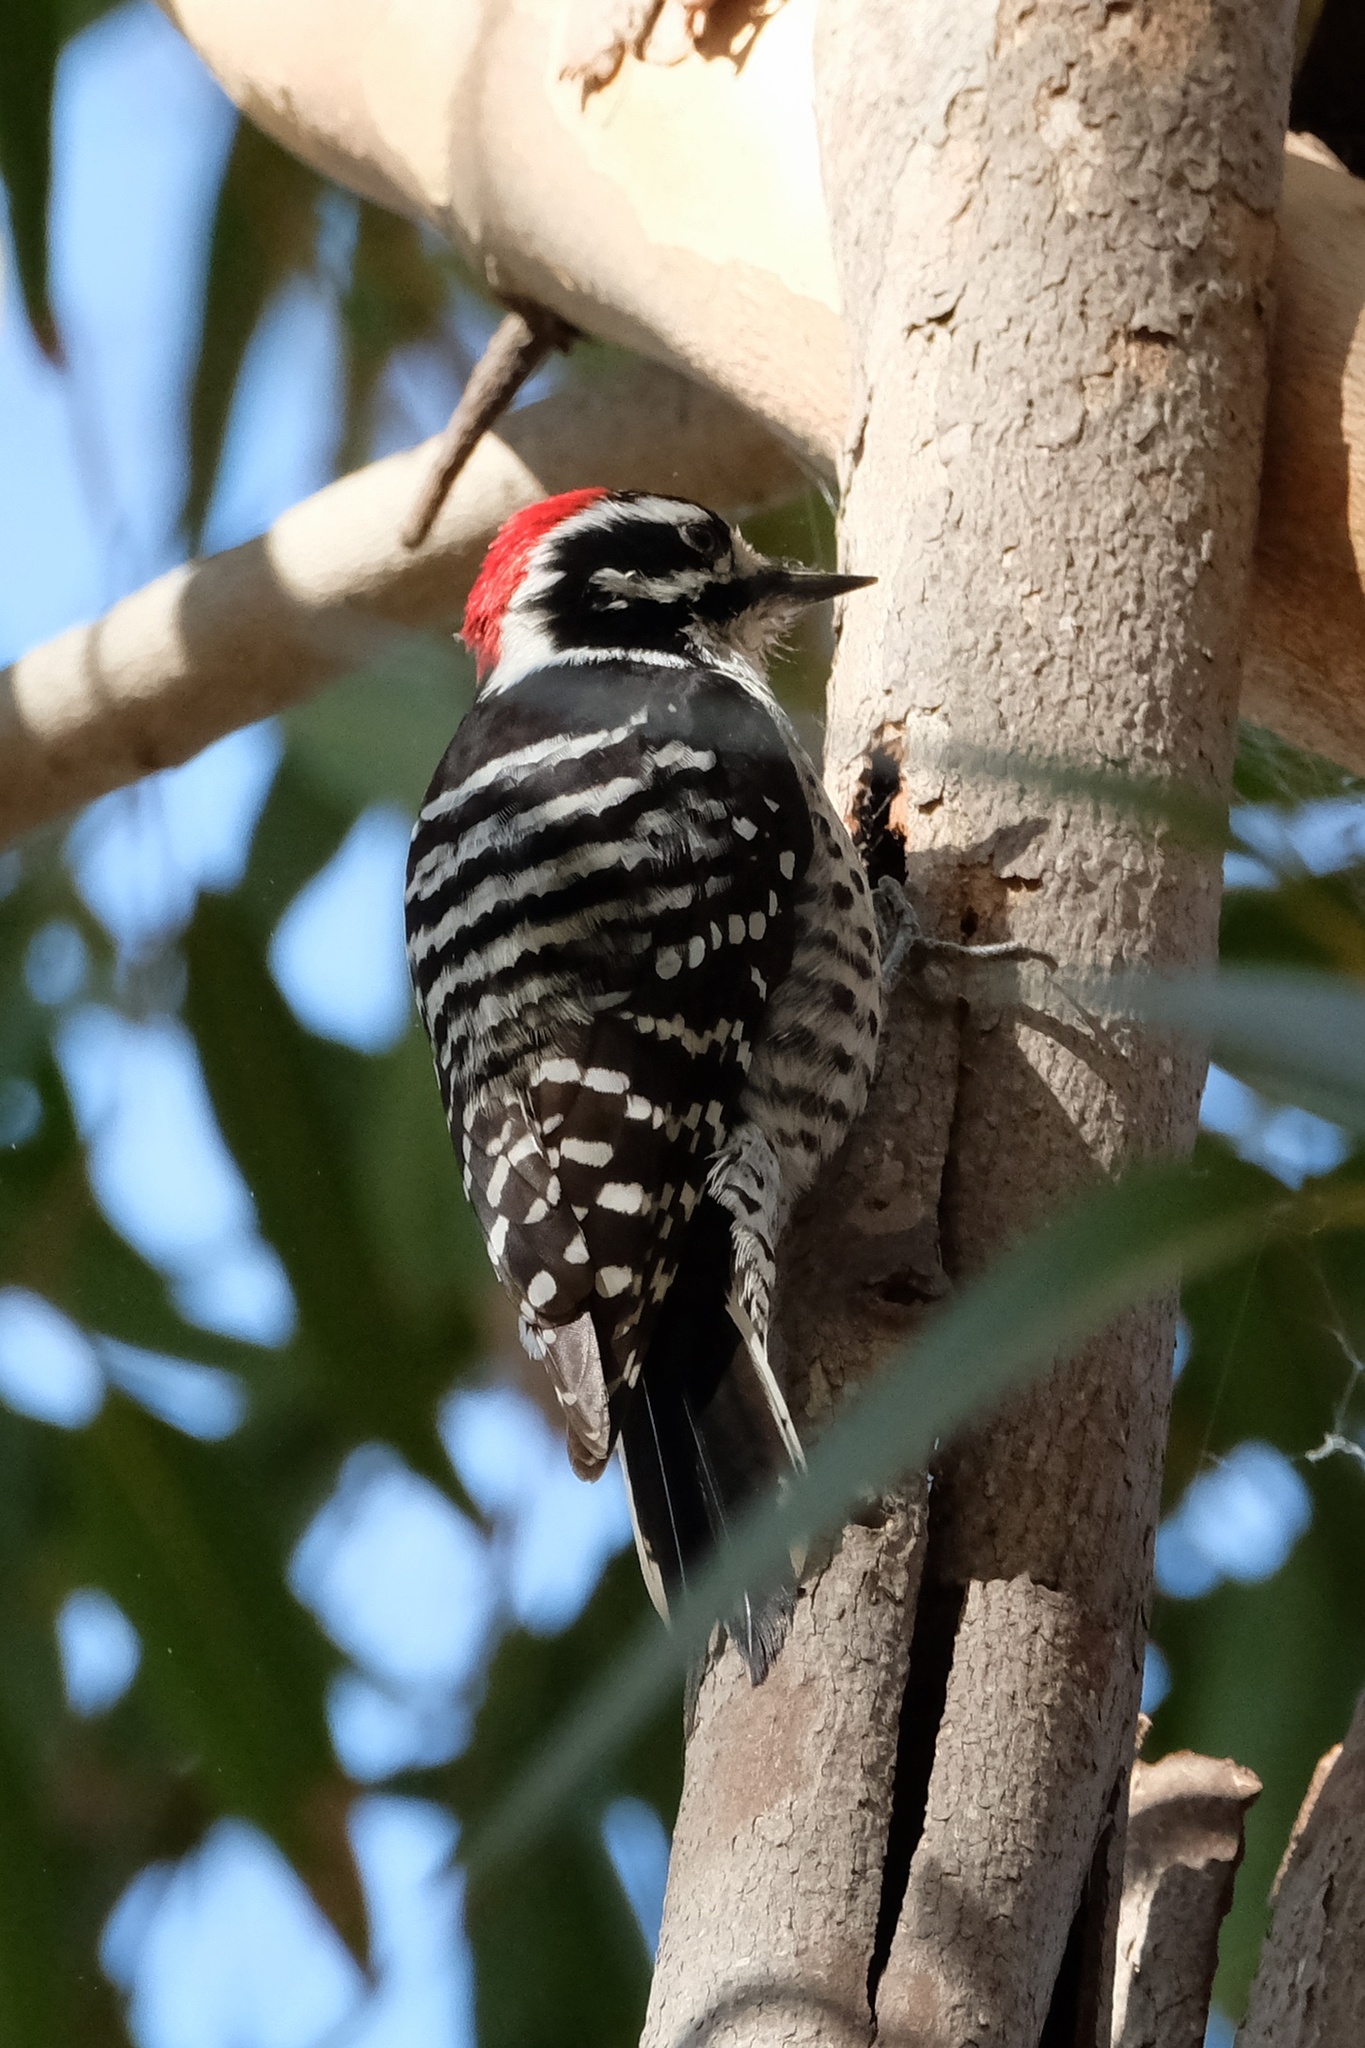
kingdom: Animalia
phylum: Chordata
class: Aves
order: Piciformes
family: Picidae
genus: Dryobates
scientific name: Dryobates nuttallii
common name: Nuttall's woodpecker
